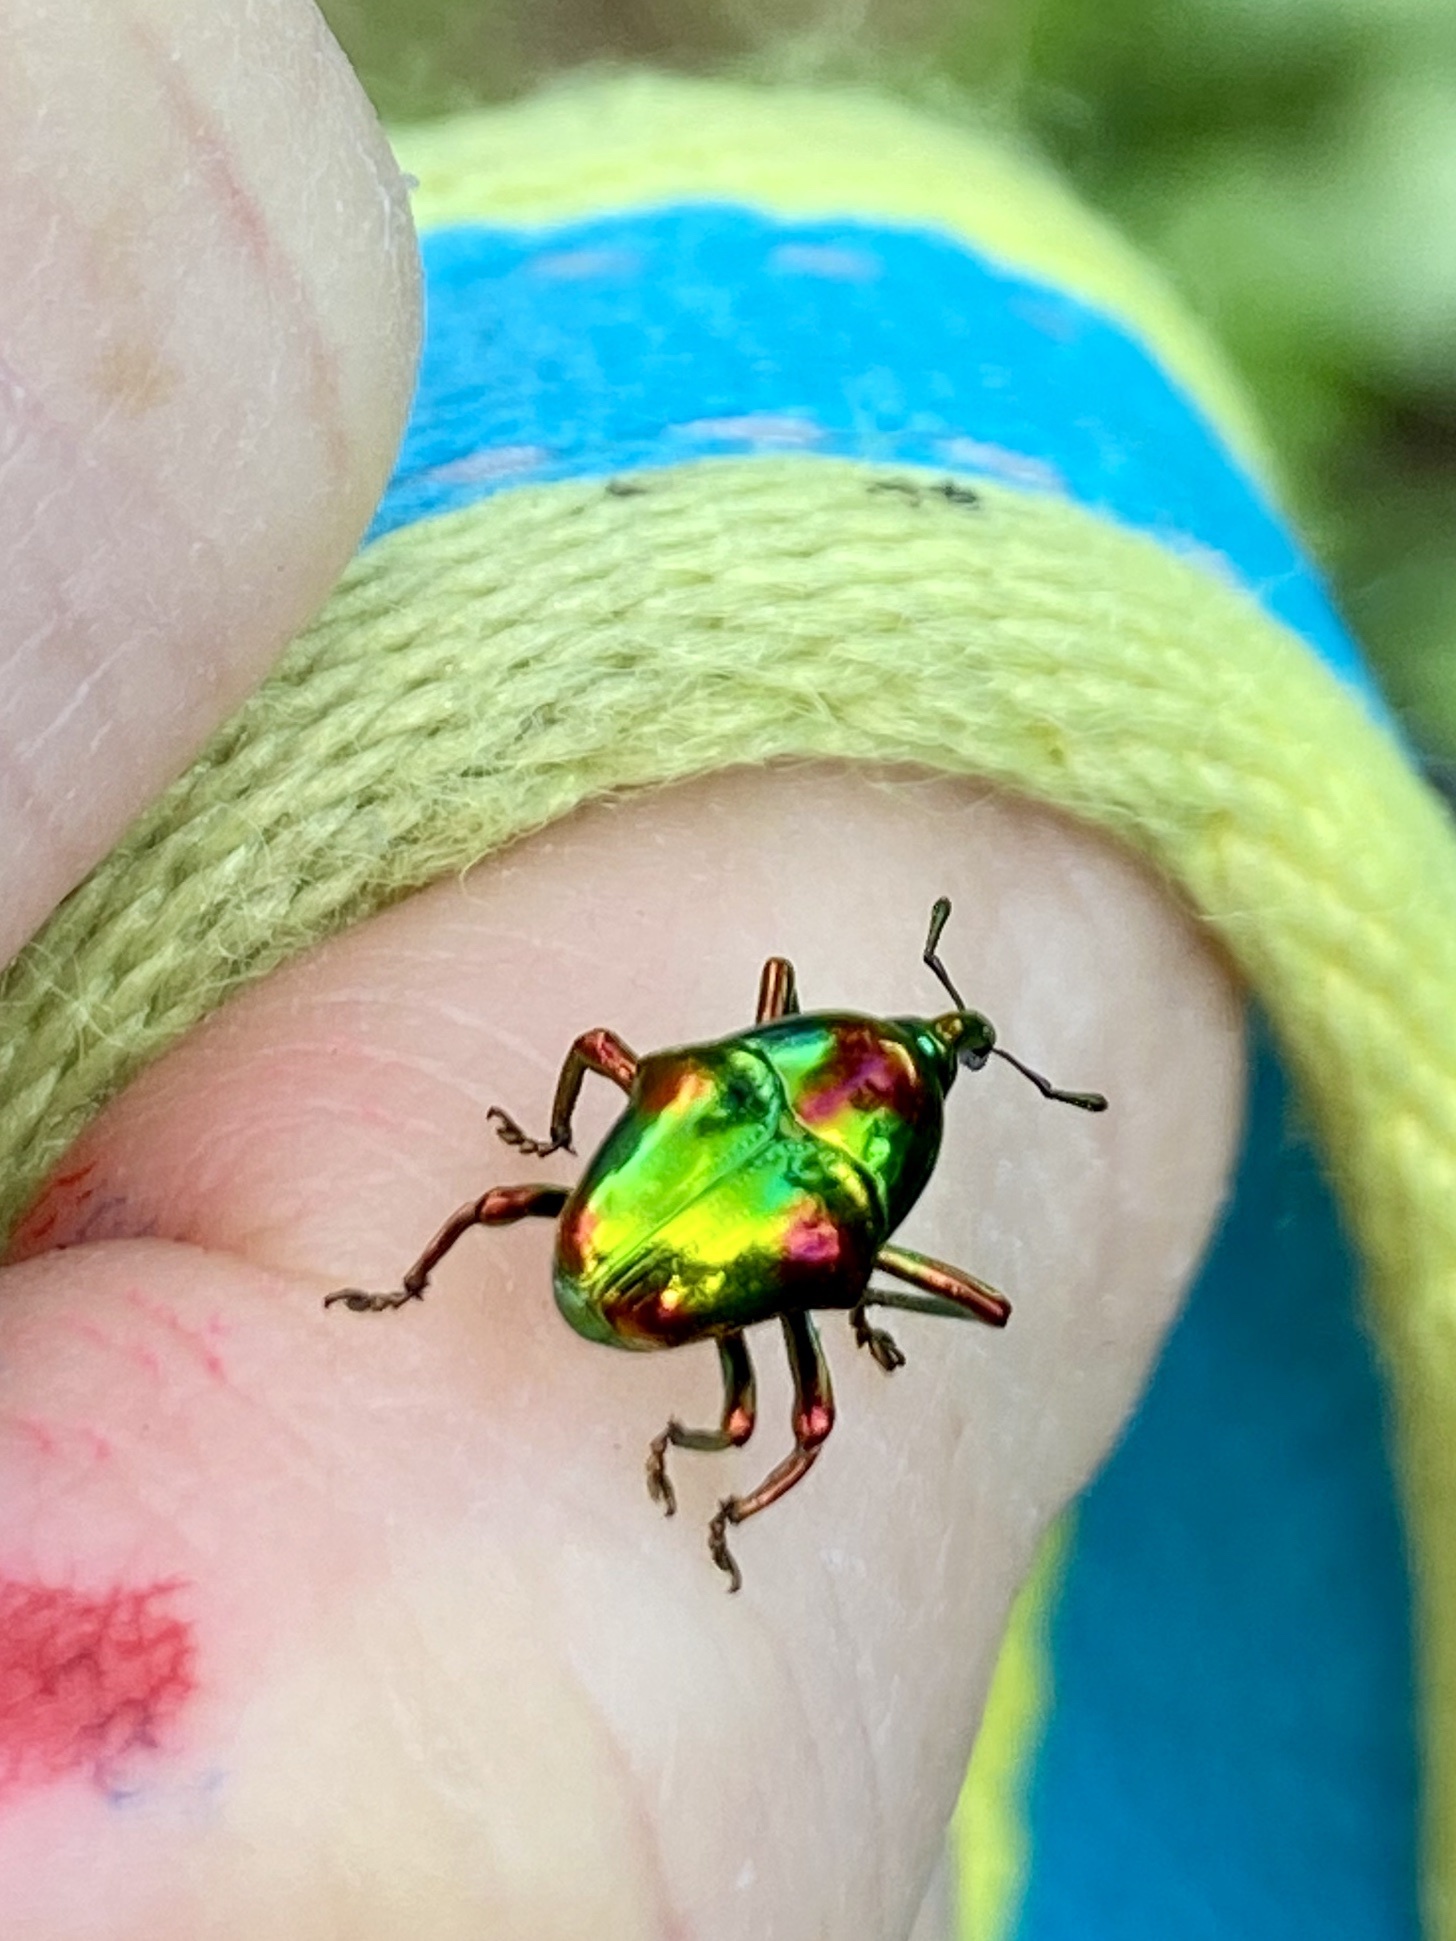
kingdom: Animalia
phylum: Arthropoda
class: Insecta
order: Coleoptera
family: Eurhynchidae
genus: Eurhinus
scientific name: Eurhinus magnificus
